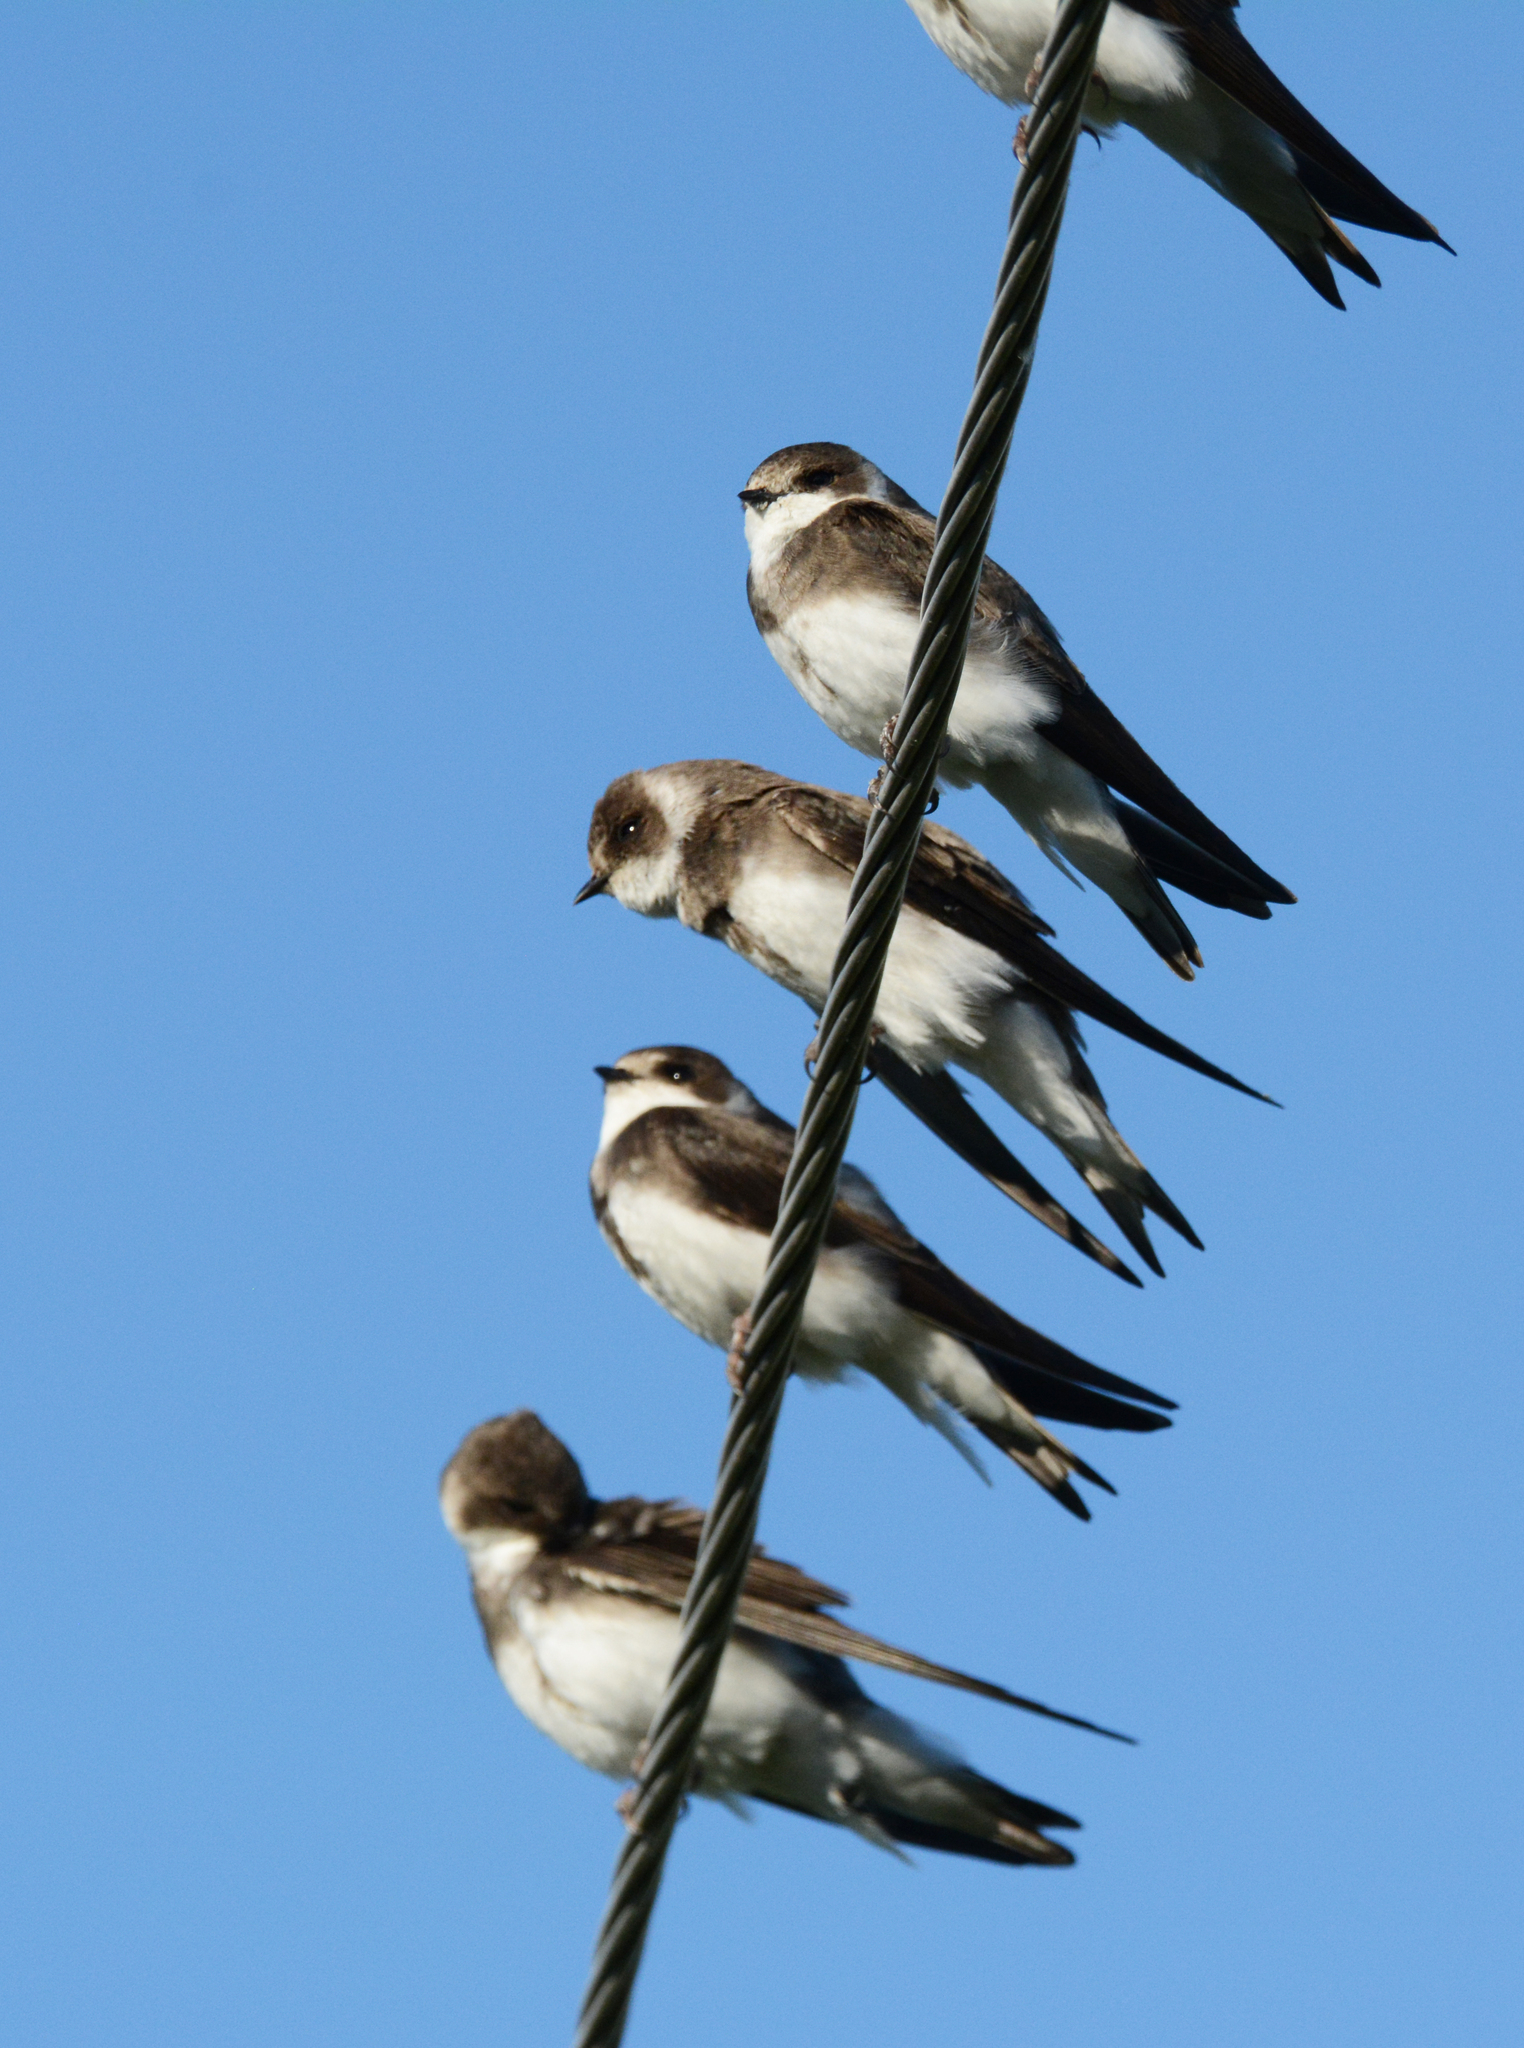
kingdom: Animalia
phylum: Chordata
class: Aves
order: Passeriformes
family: Hirundinidae
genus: Riparia
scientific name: Riparia riparia
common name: Sand martin
